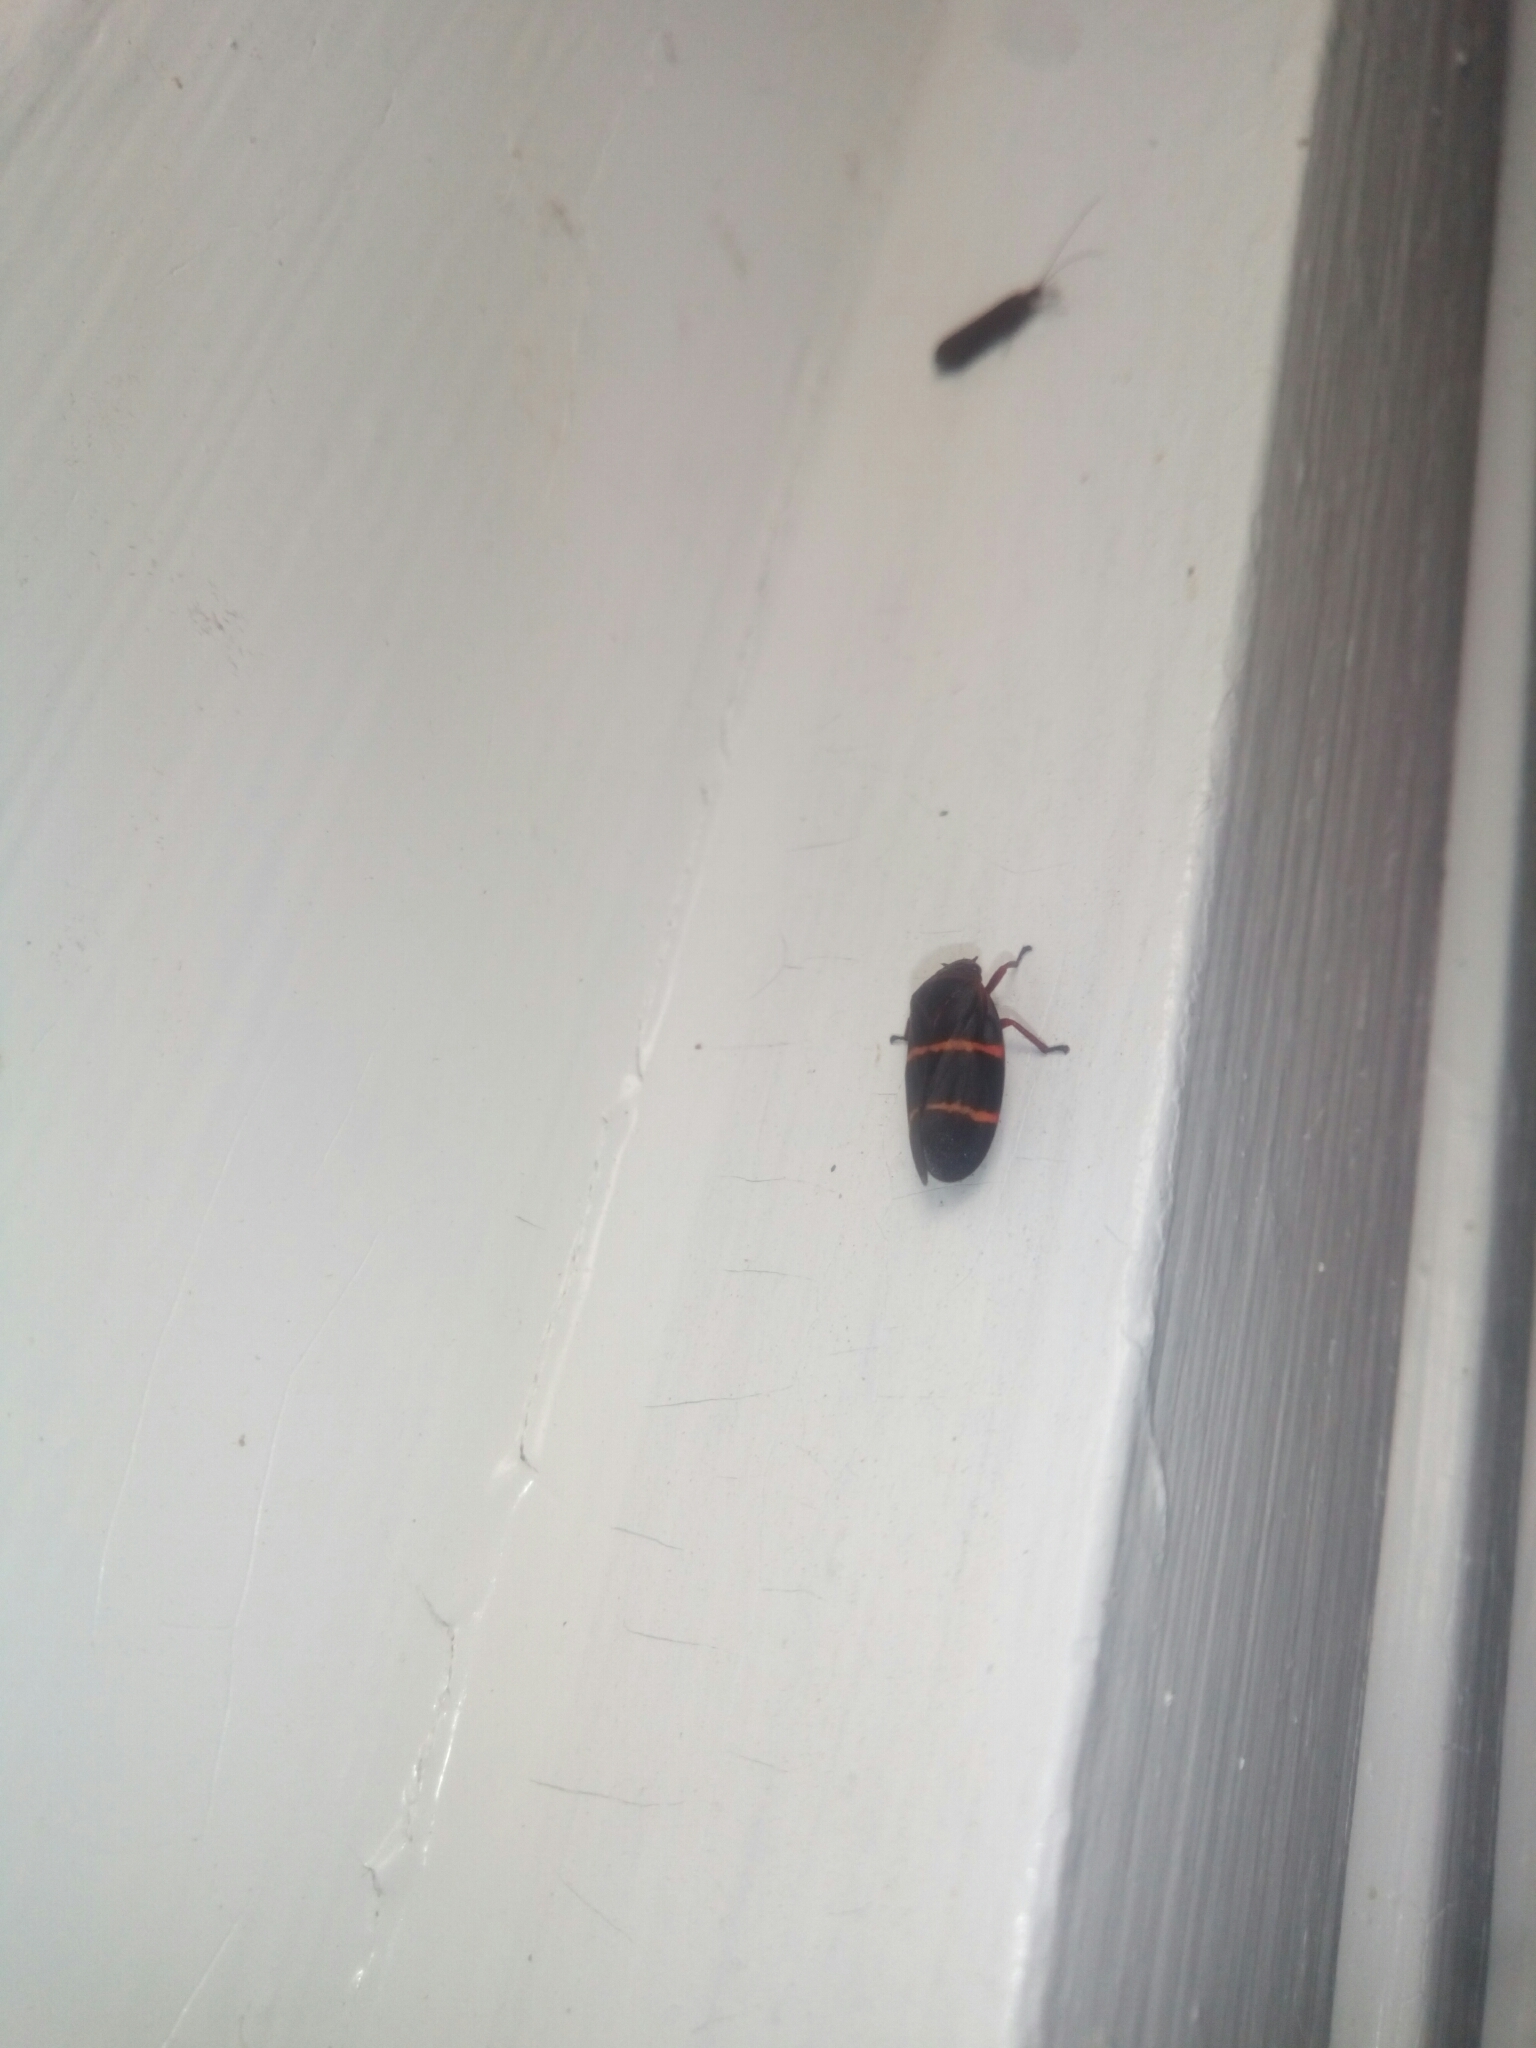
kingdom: Animalia
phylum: Arthropoda
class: Insecta
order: Hemiptera
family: Cercopidae
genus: Prosapia
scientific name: Prosapia bicincta
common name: Twolined spittlebug
